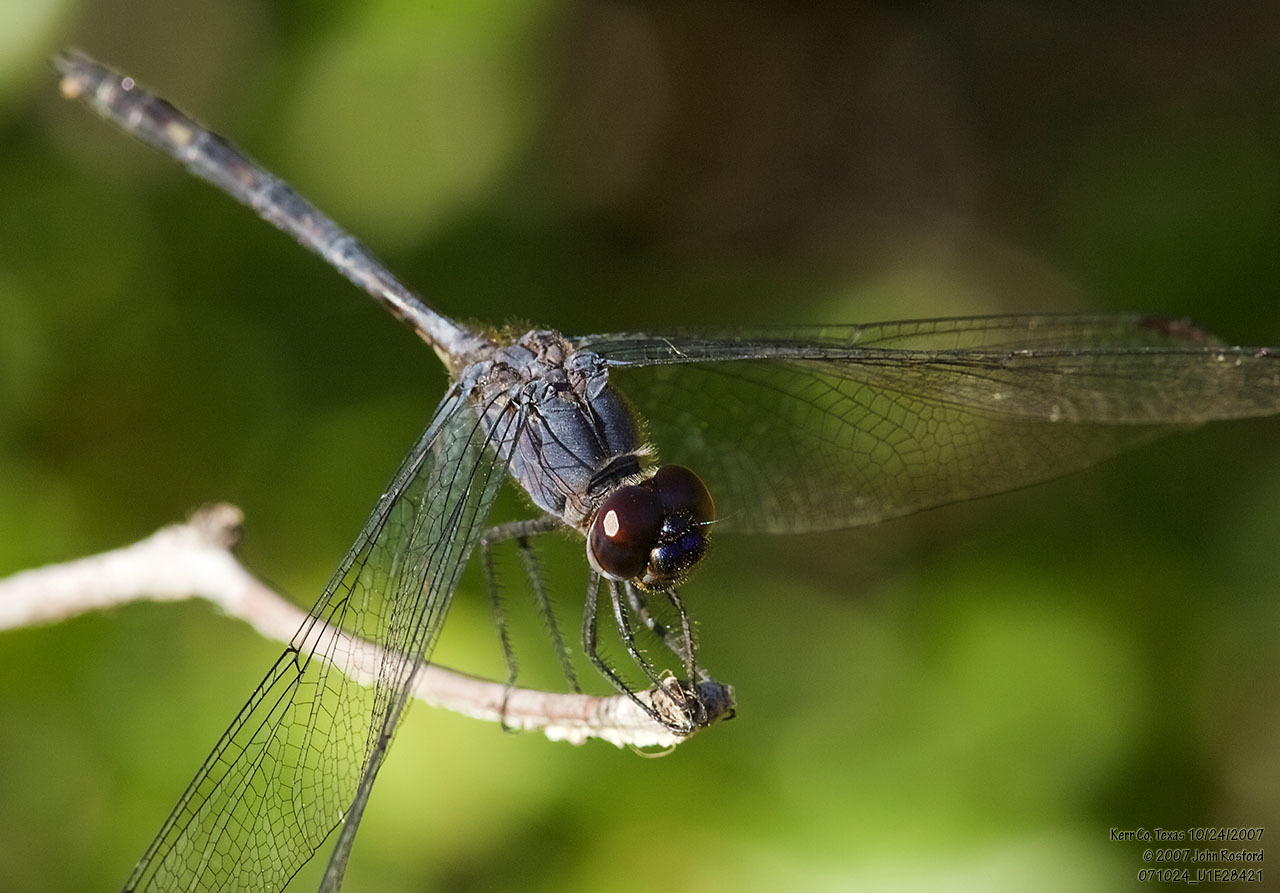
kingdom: Animalia
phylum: Arthropoda
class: Insecta
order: Odonata
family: Libellulidae
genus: Dythemis
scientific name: Dythemis nigrescens
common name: Black setwing
